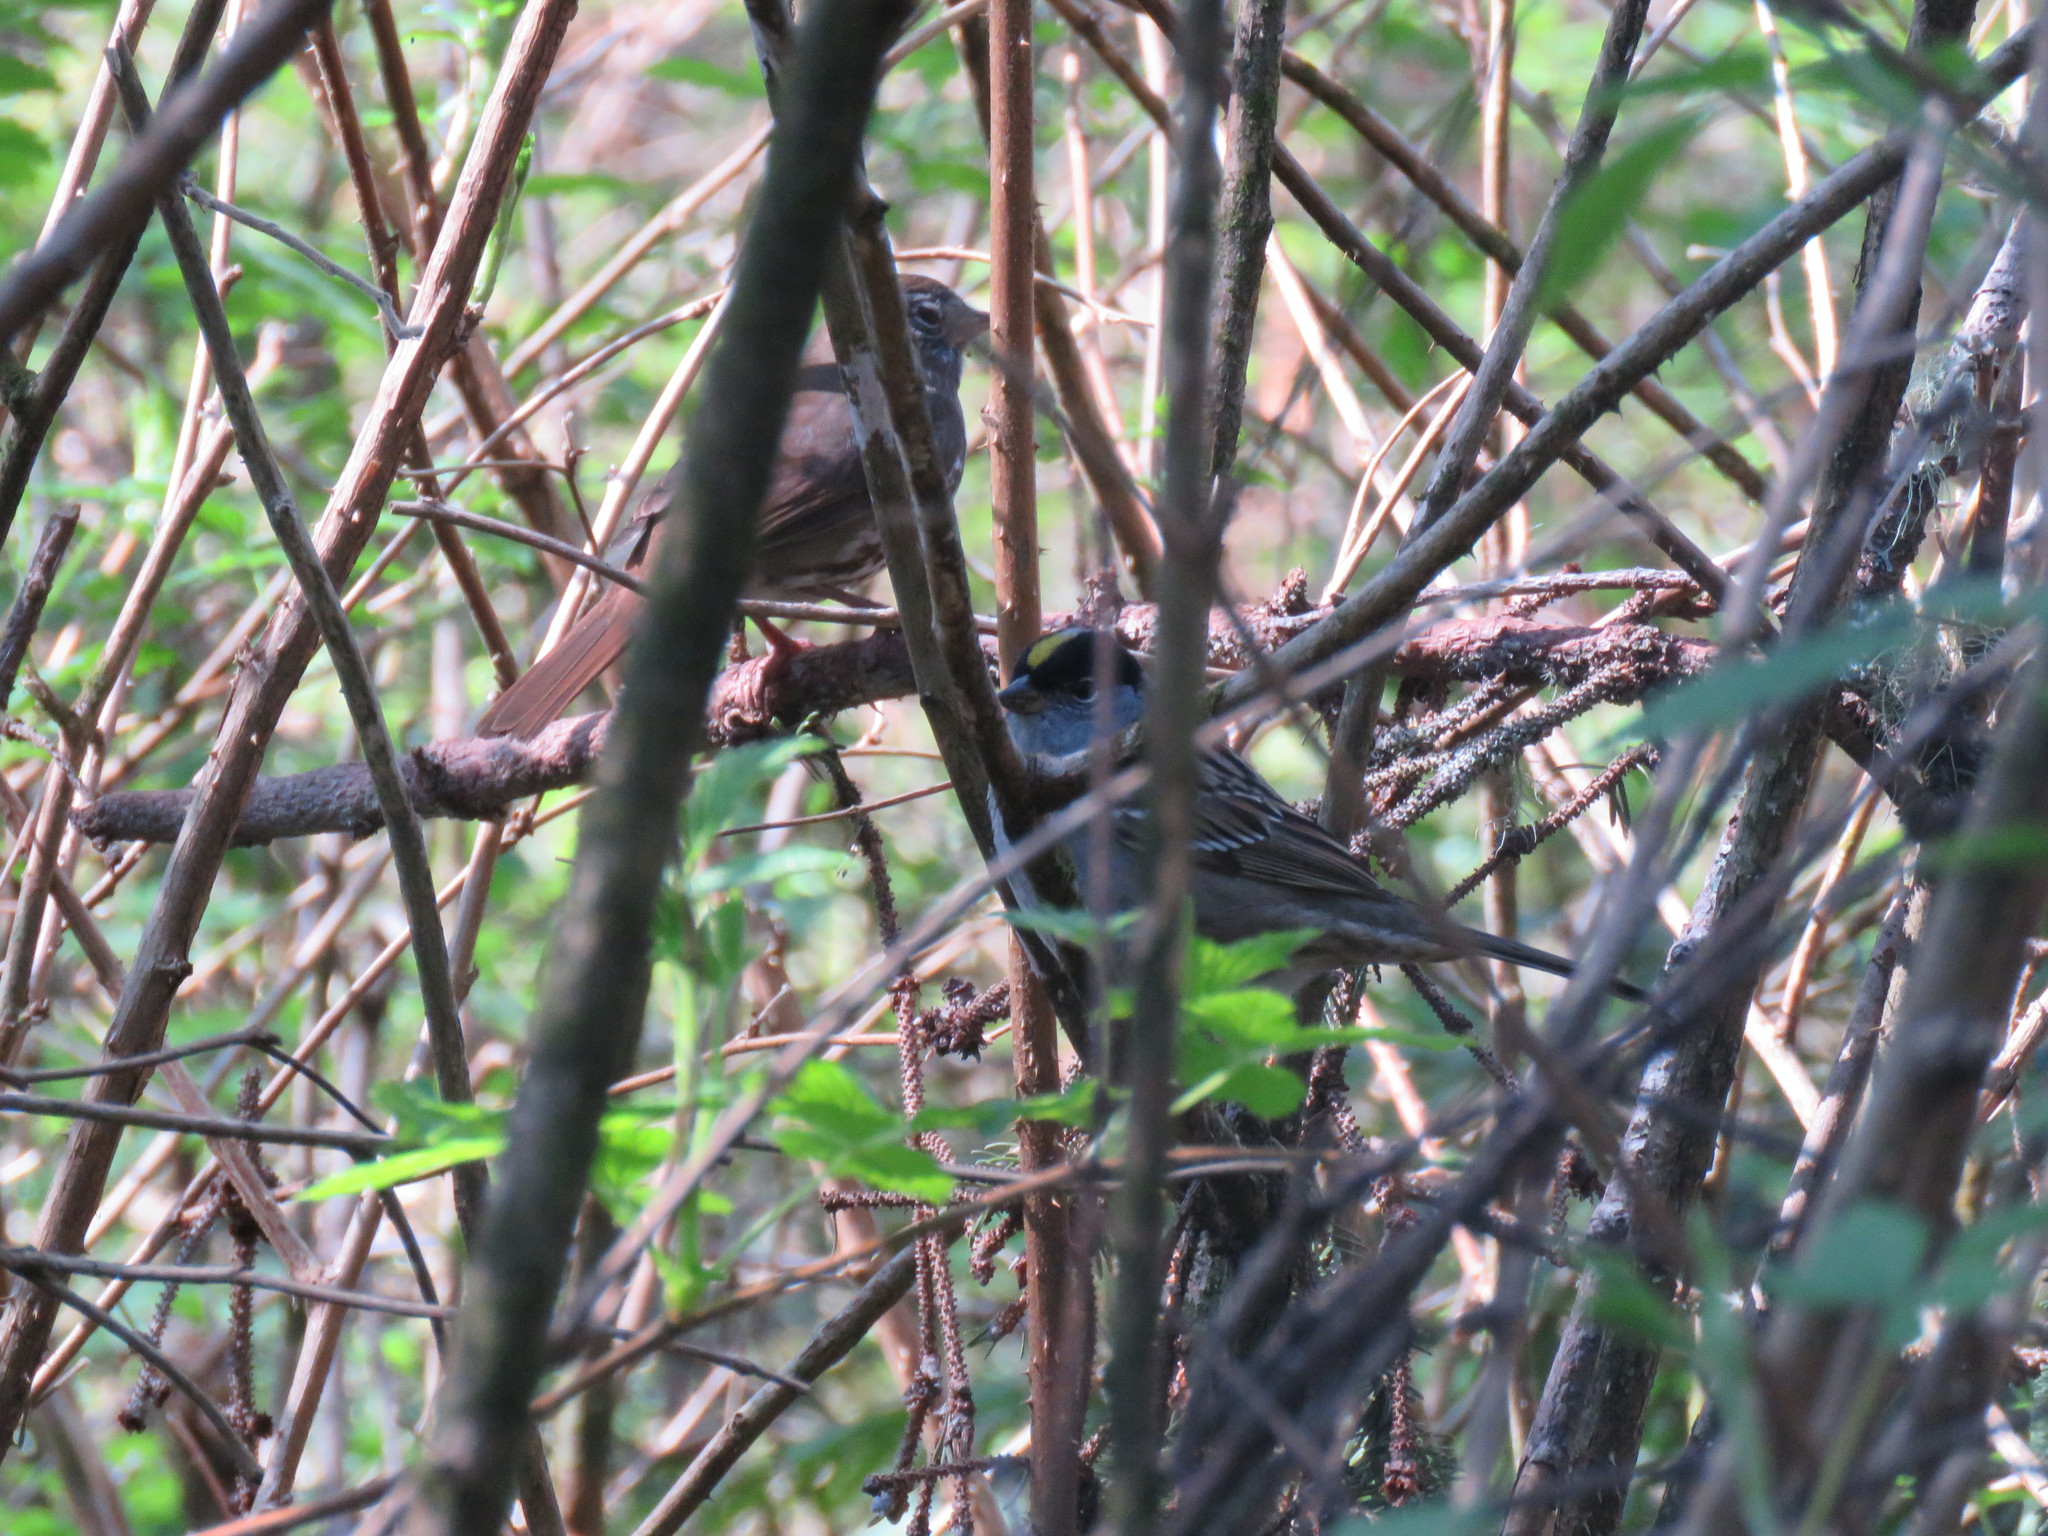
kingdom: Animalia
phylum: Chordata
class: Aves
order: Passeriformes
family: Passerellidae
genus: Passerella
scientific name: Passerella iliaca
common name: Fox sparrow
